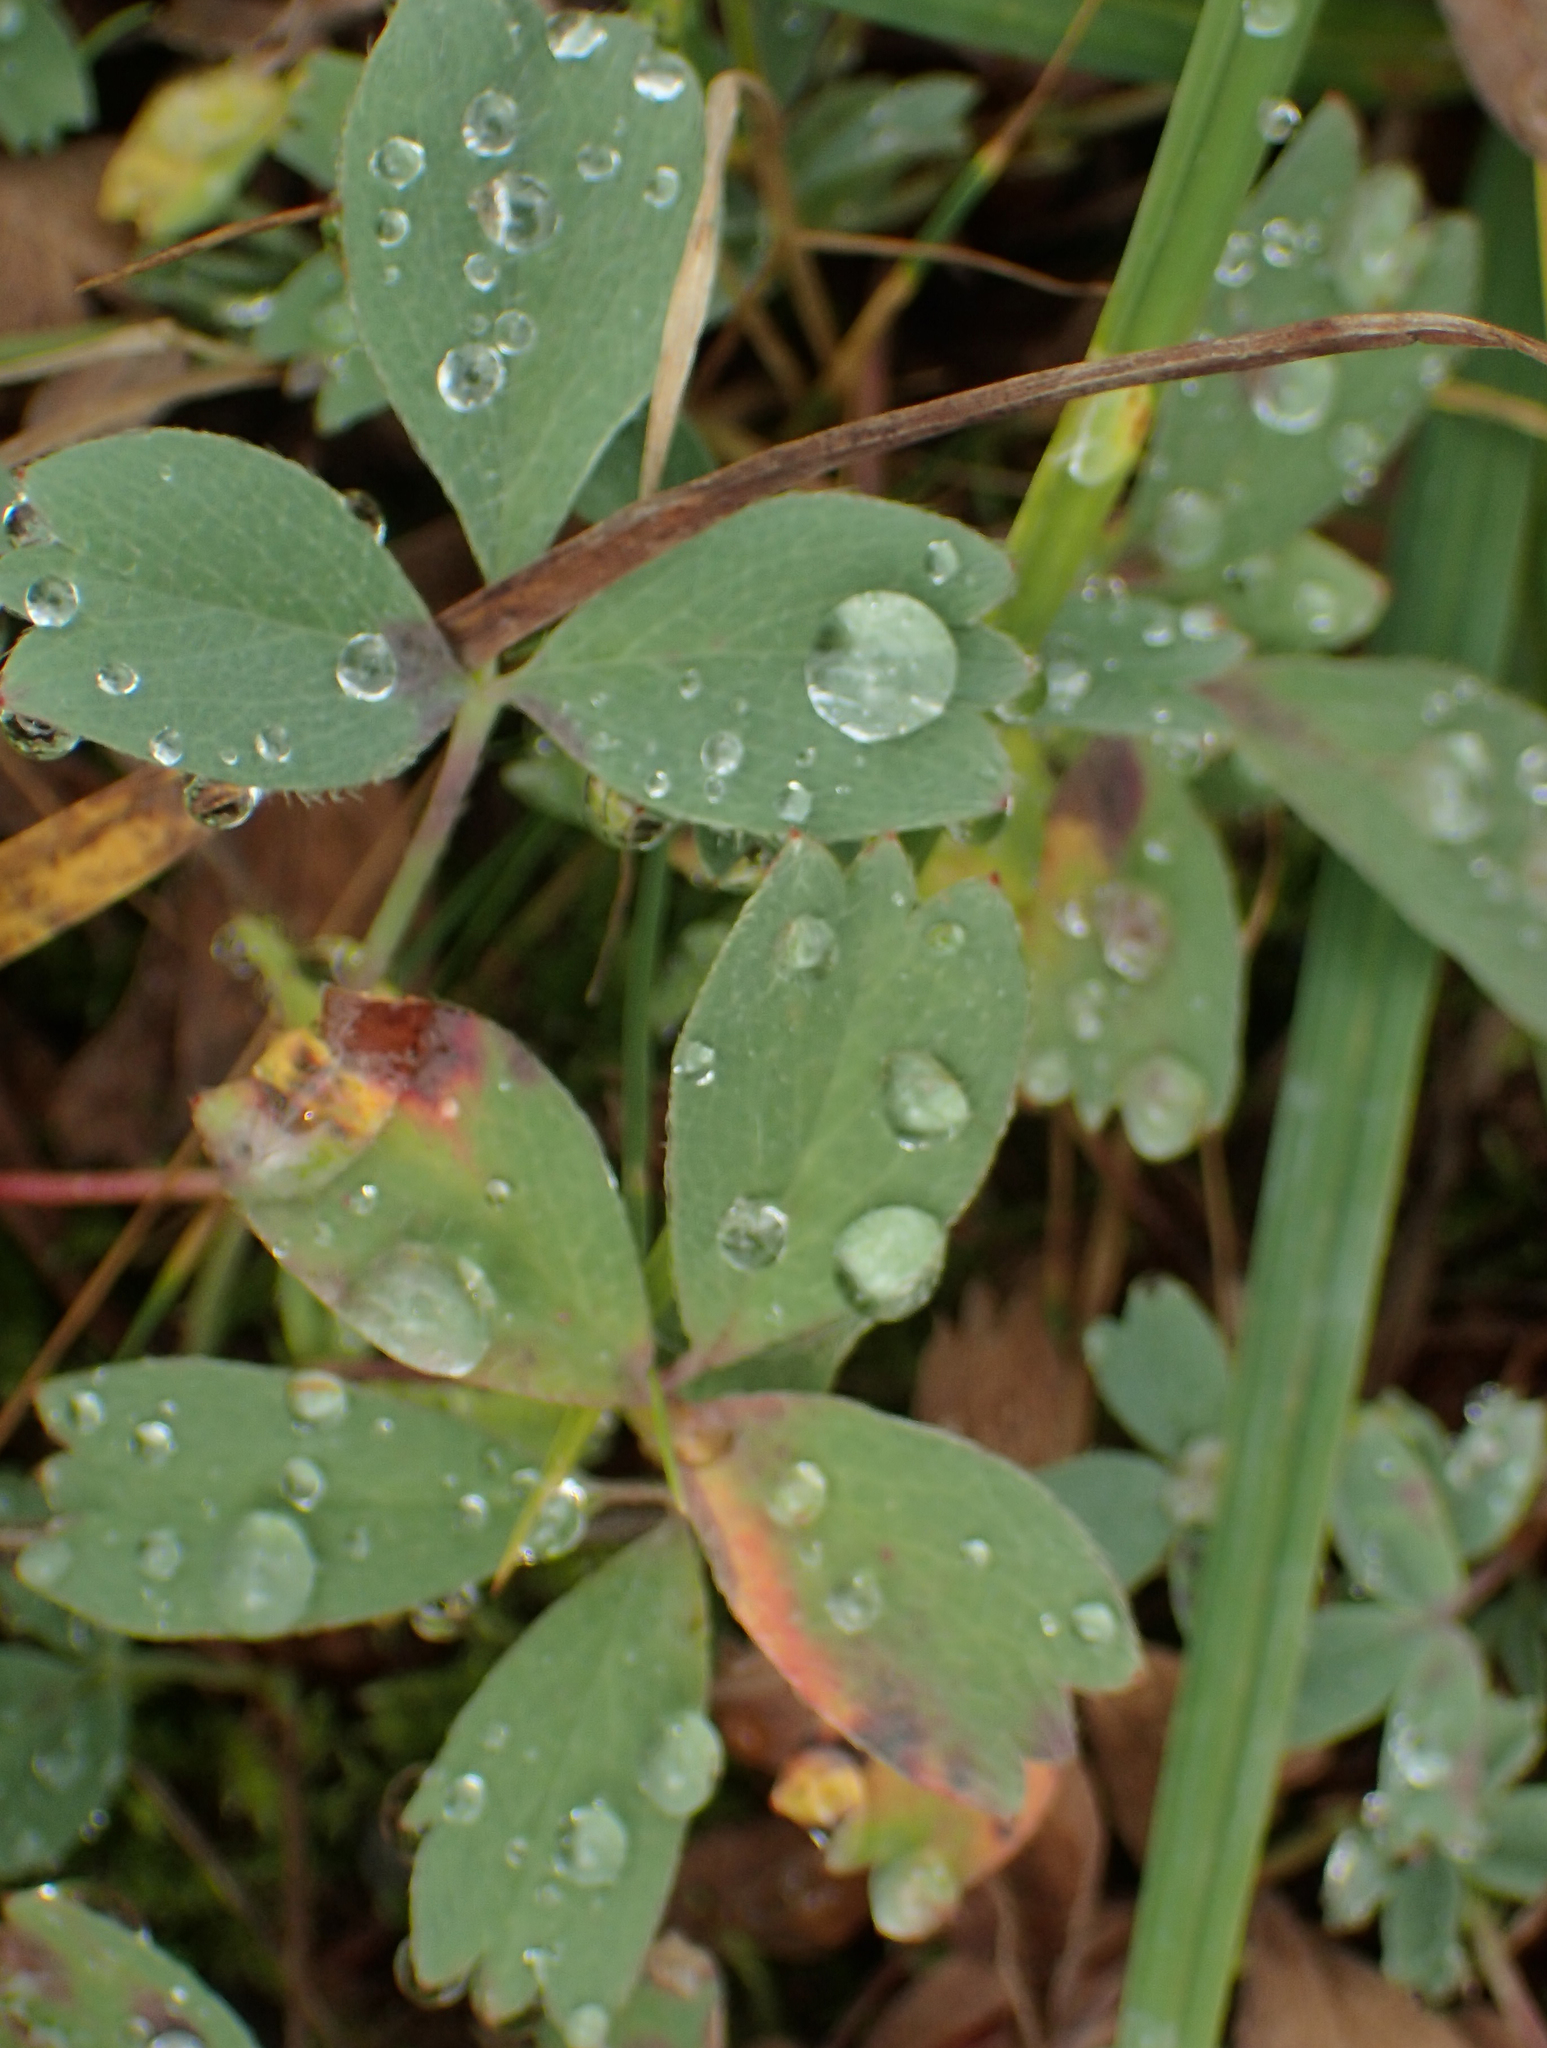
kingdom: Plantae
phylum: Tracheophyta
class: Magnoliopsida
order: Rosales
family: Rosaceae
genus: Sibbaldia
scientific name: Sibbaldia procumbens
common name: Creeping sibbaldia
